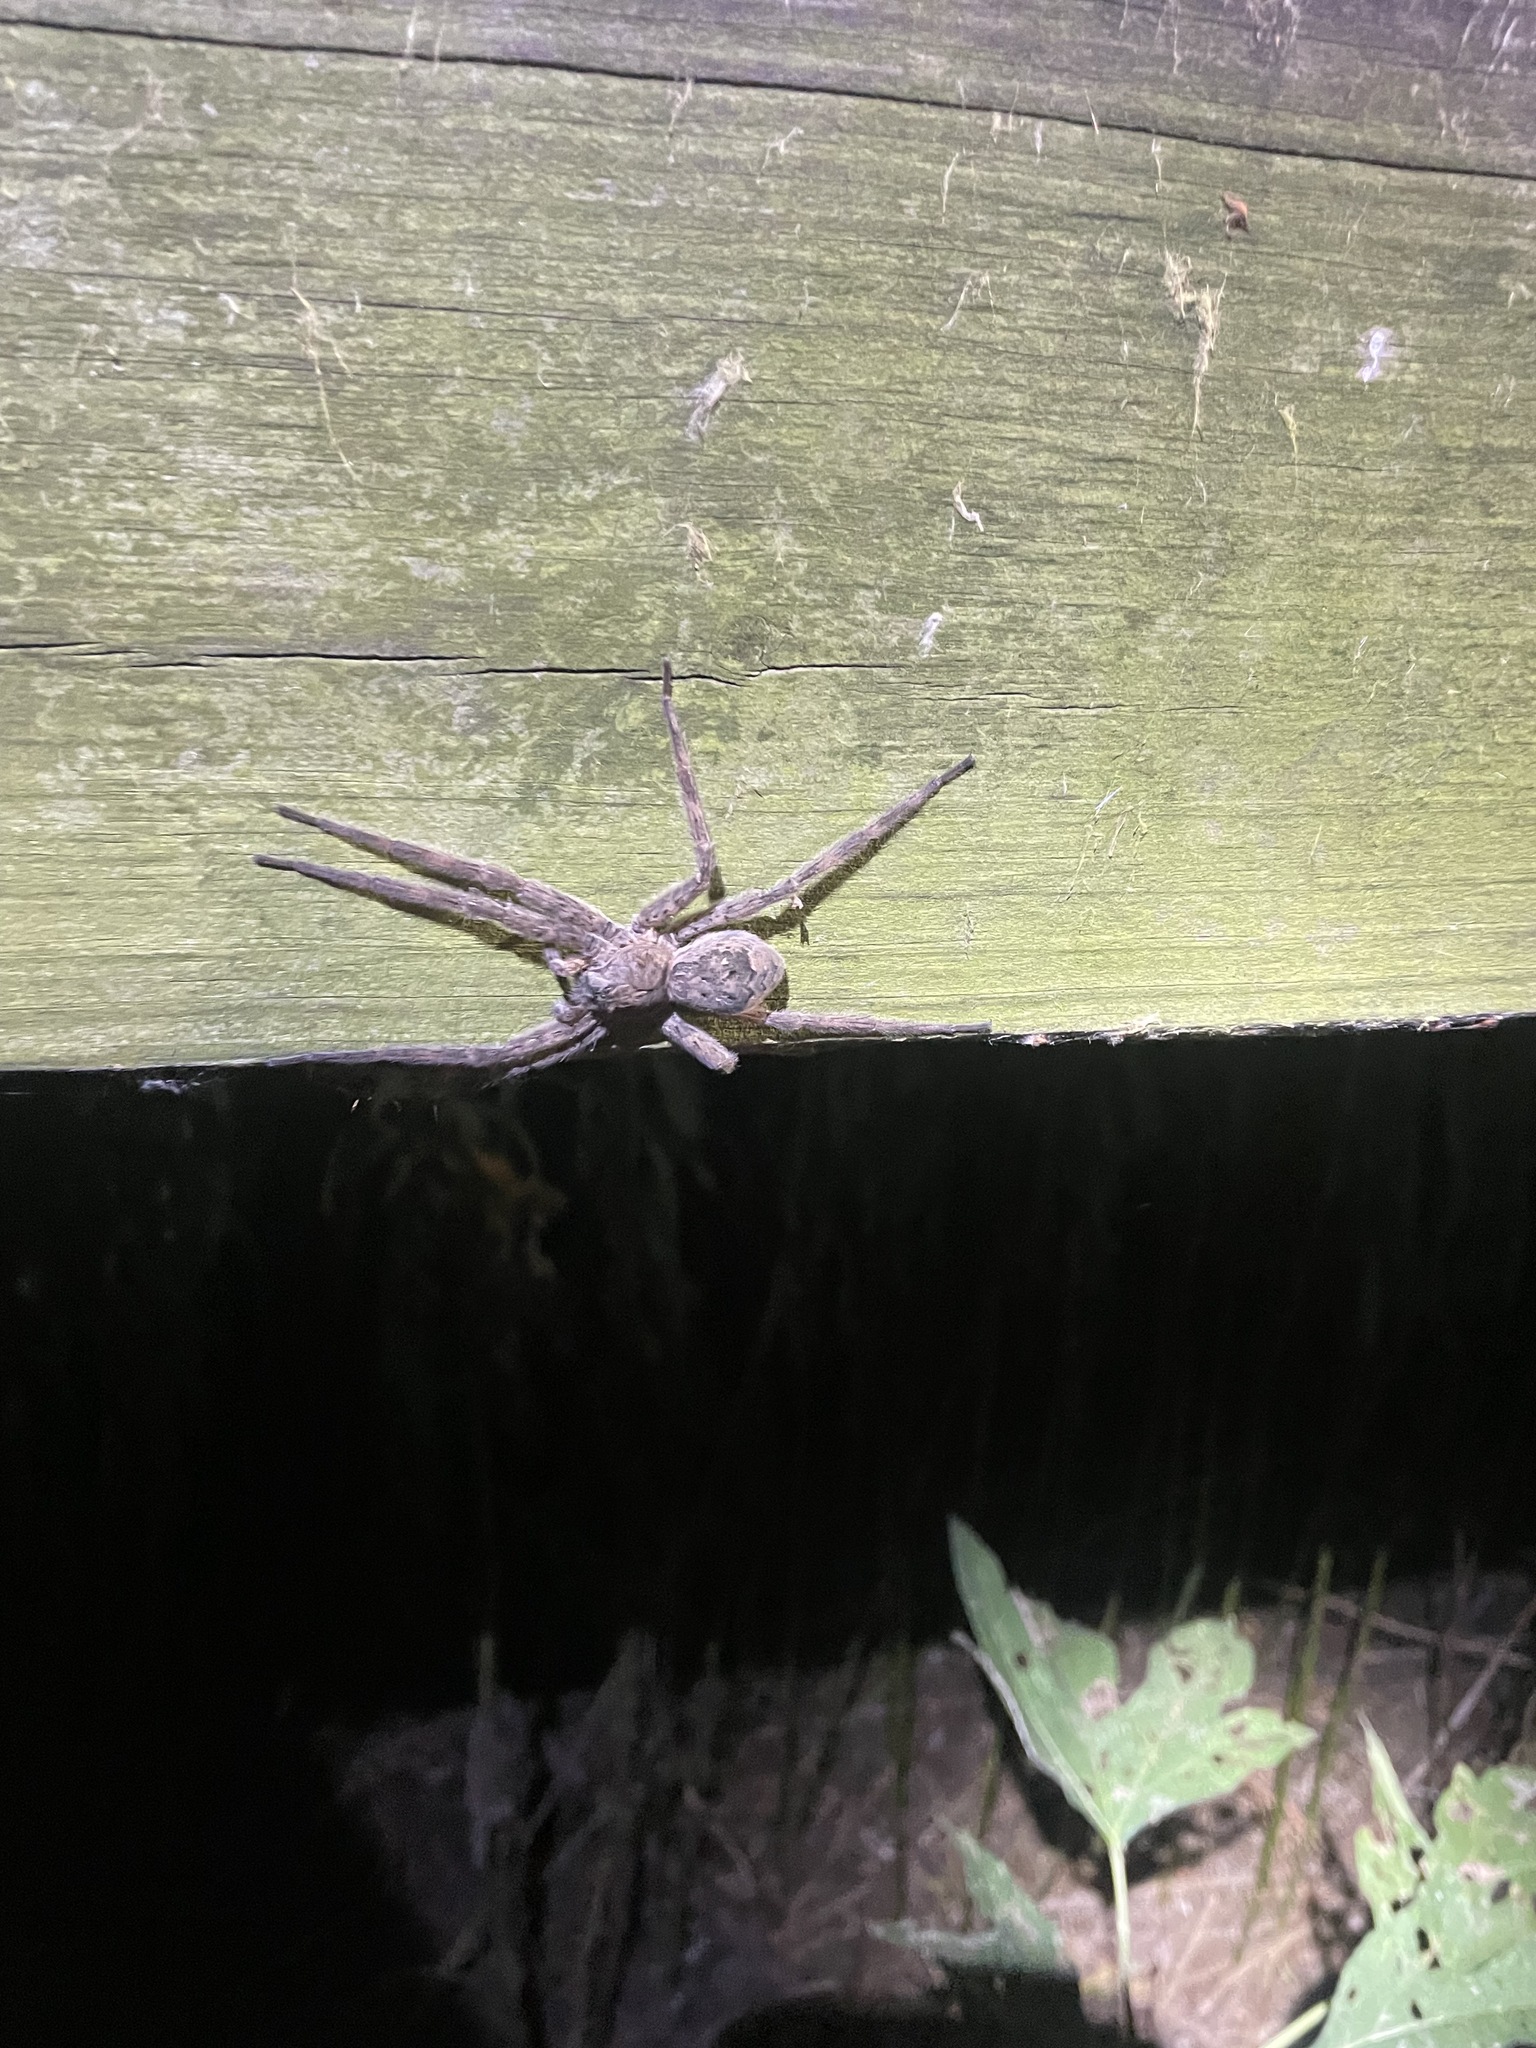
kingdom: Animalia
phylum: Arthropoda
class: Arachnida
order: Araneae
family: Pisauridae
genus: Dolomedes
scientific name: Dolomedes tenebrosus
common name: Dark fishing spider
